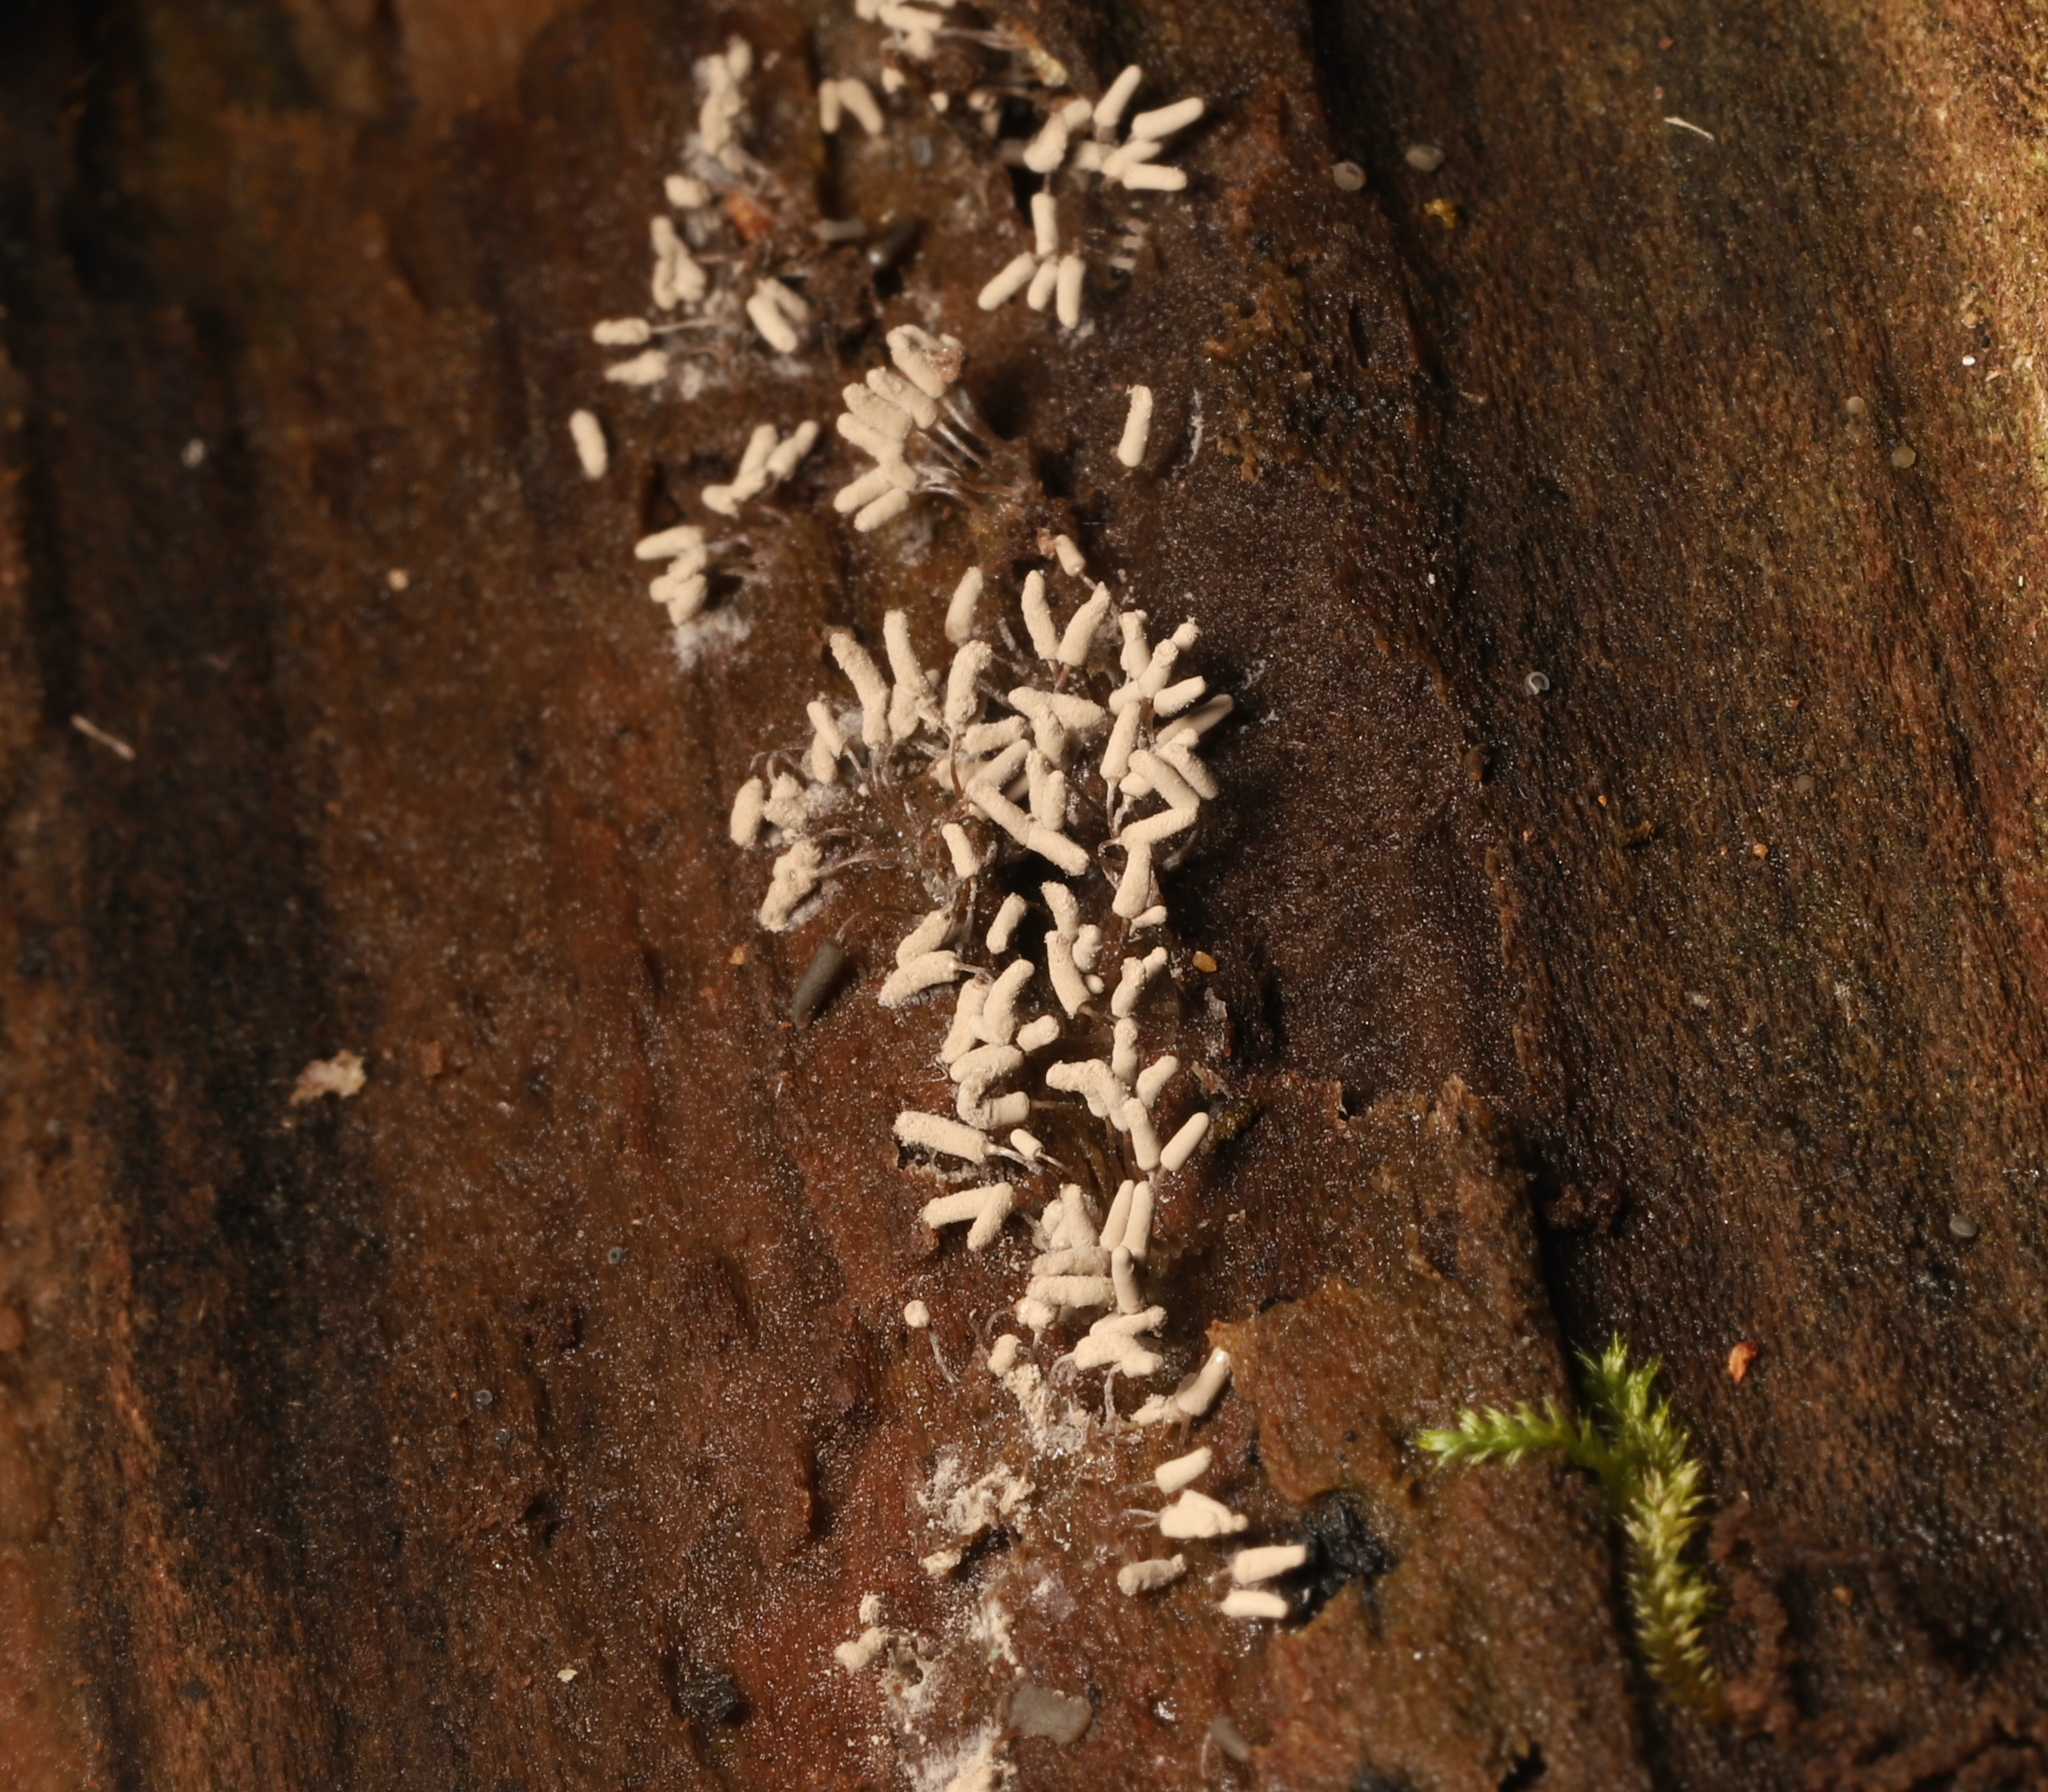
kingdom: Protozoa
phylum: Mycetozoa
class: Myxomycetes
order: Trichiales
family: Arcyriaceae
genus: Arcyria
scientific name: Arcyria cinerea
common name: White carnival candy slime mold
